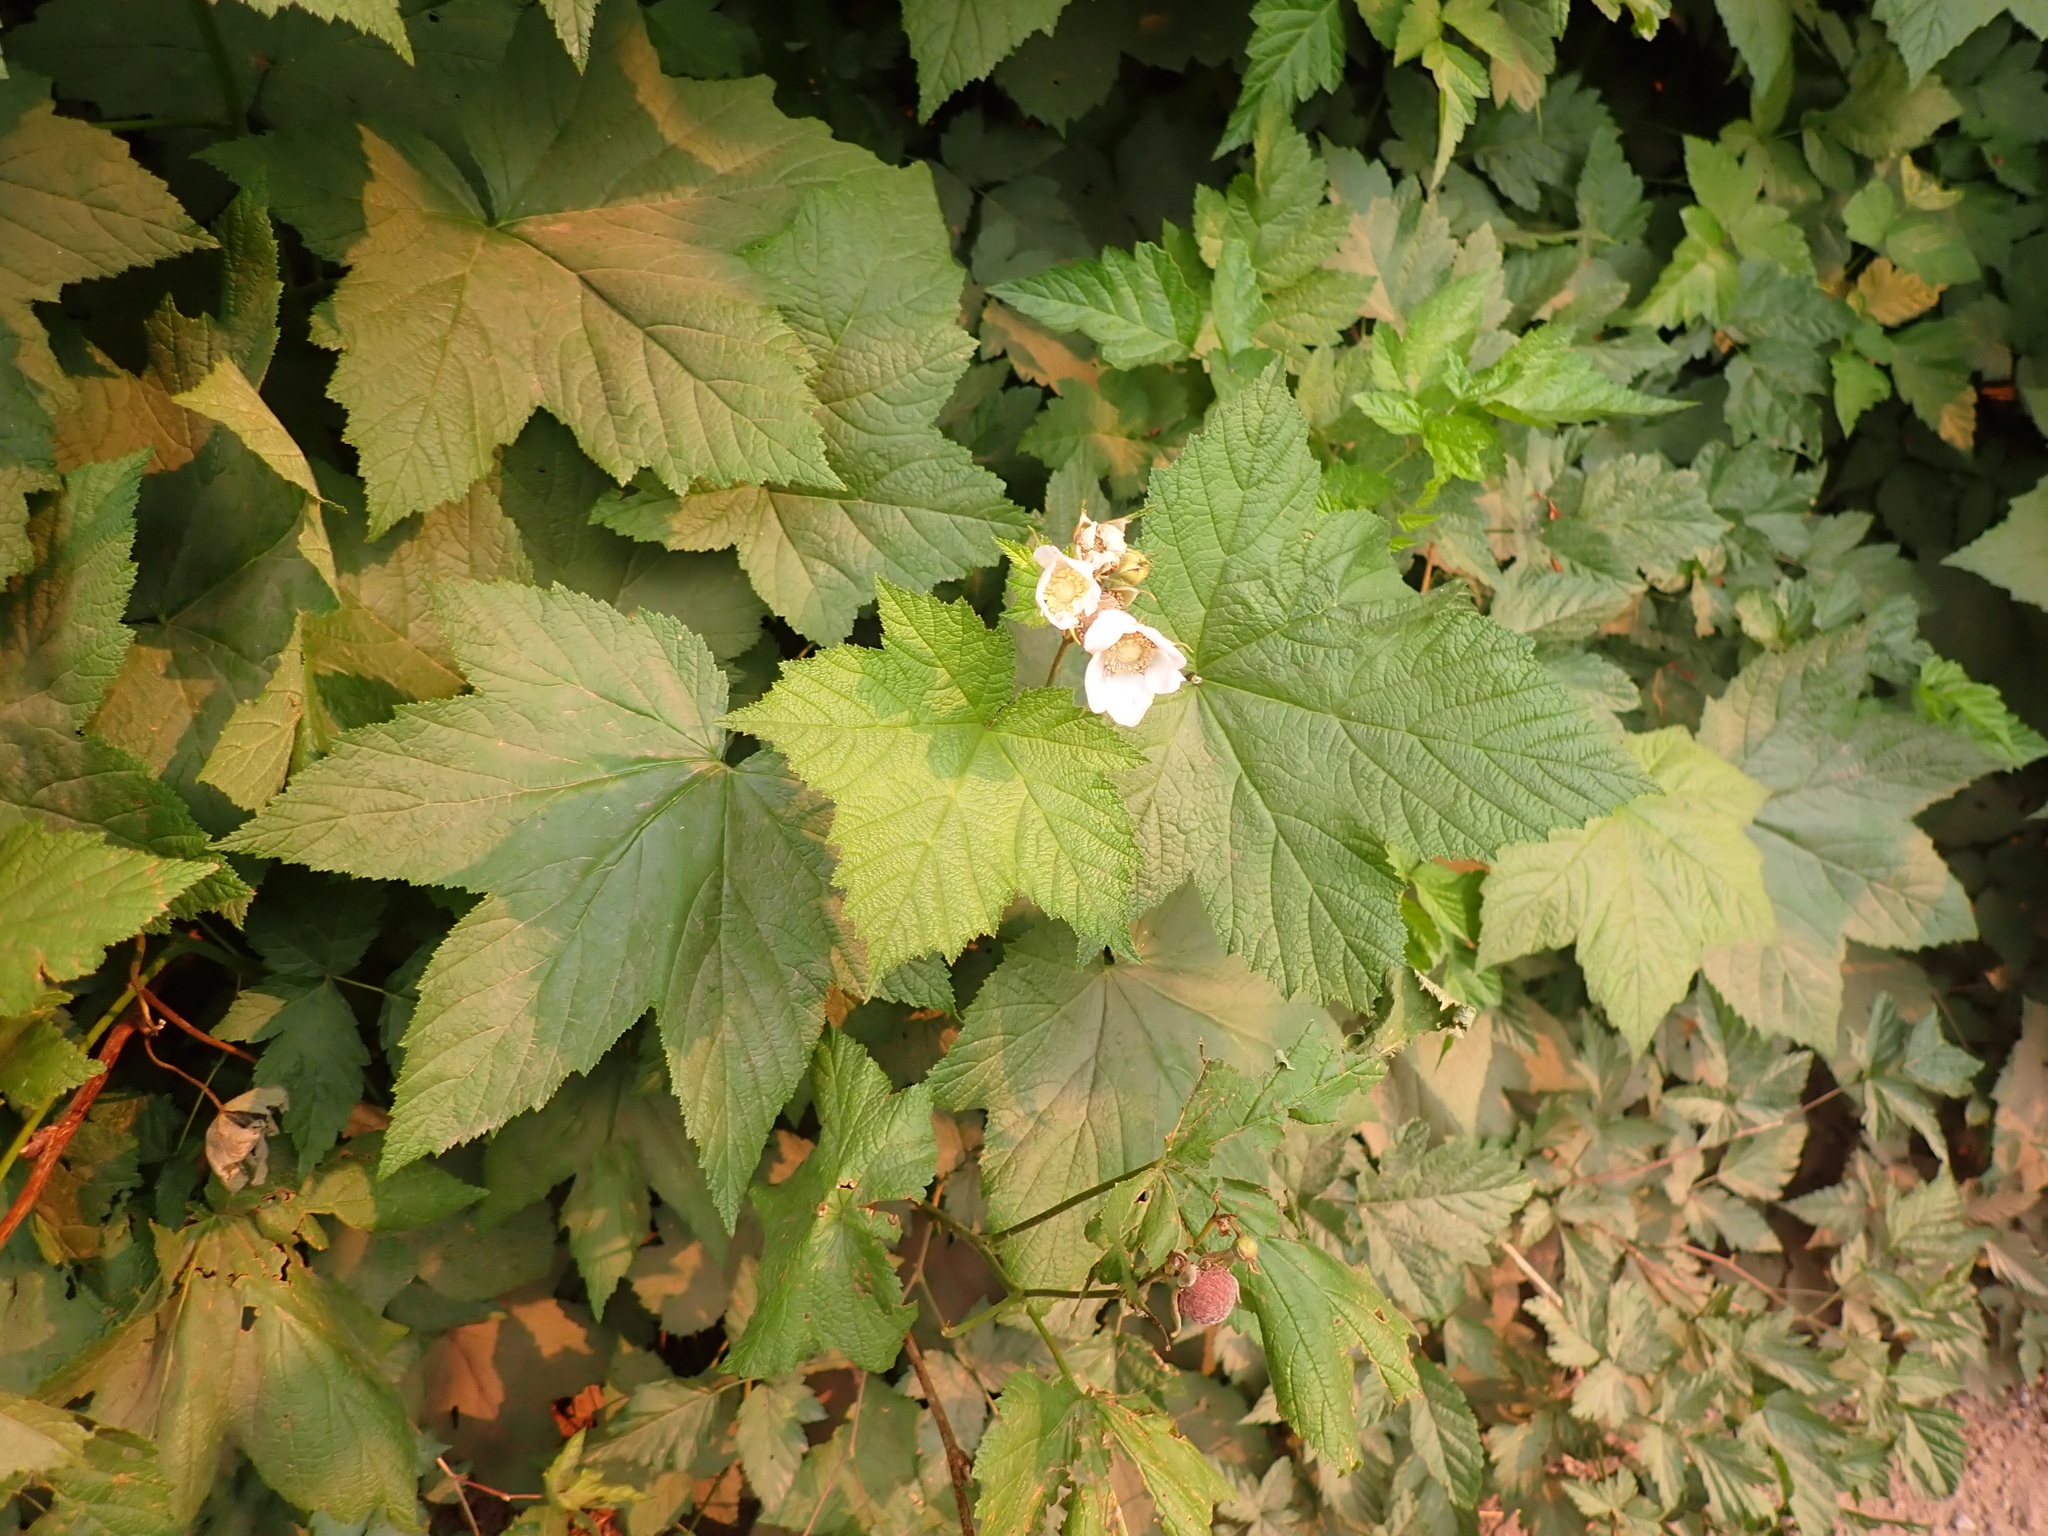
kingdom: Plantae
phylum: Tracheophyta
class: Magnoliopsida
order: Rosales
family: Rosaceae
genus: Rubus
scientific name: Rubus parviflorus
